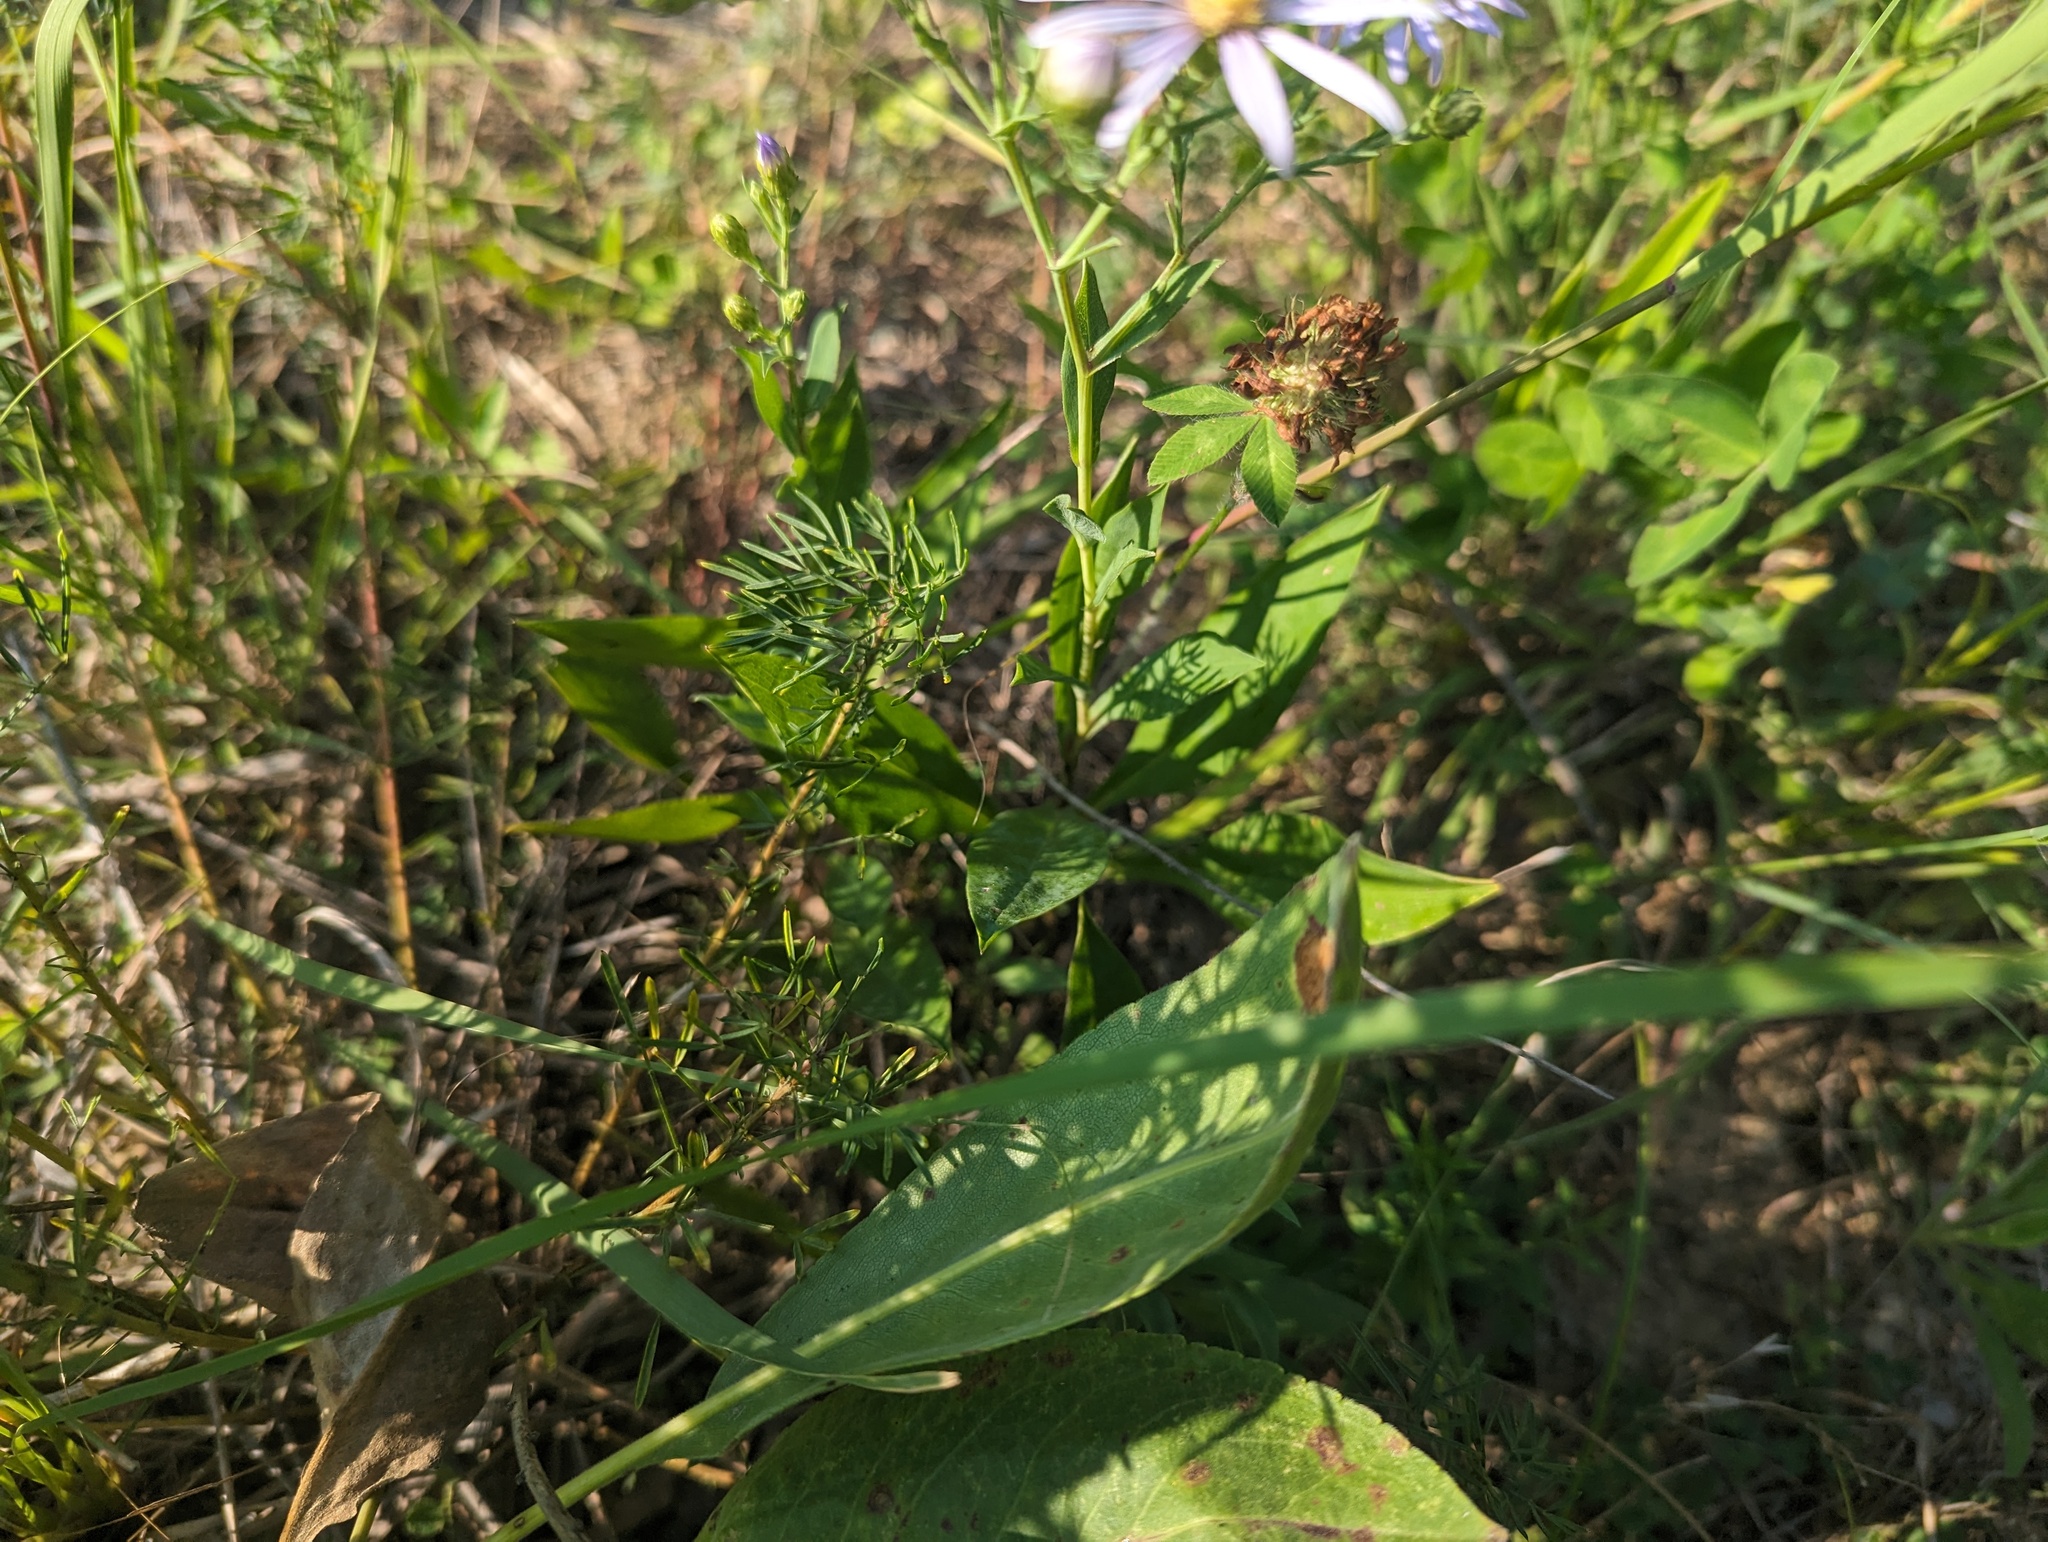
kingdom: Plantae
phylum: Tracheophyta
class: Magnoliopsida
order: Asterales
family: Asteraceae
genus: Symphyotrichum
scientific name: Symphyotrichum laeve
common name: Glaucous aster
